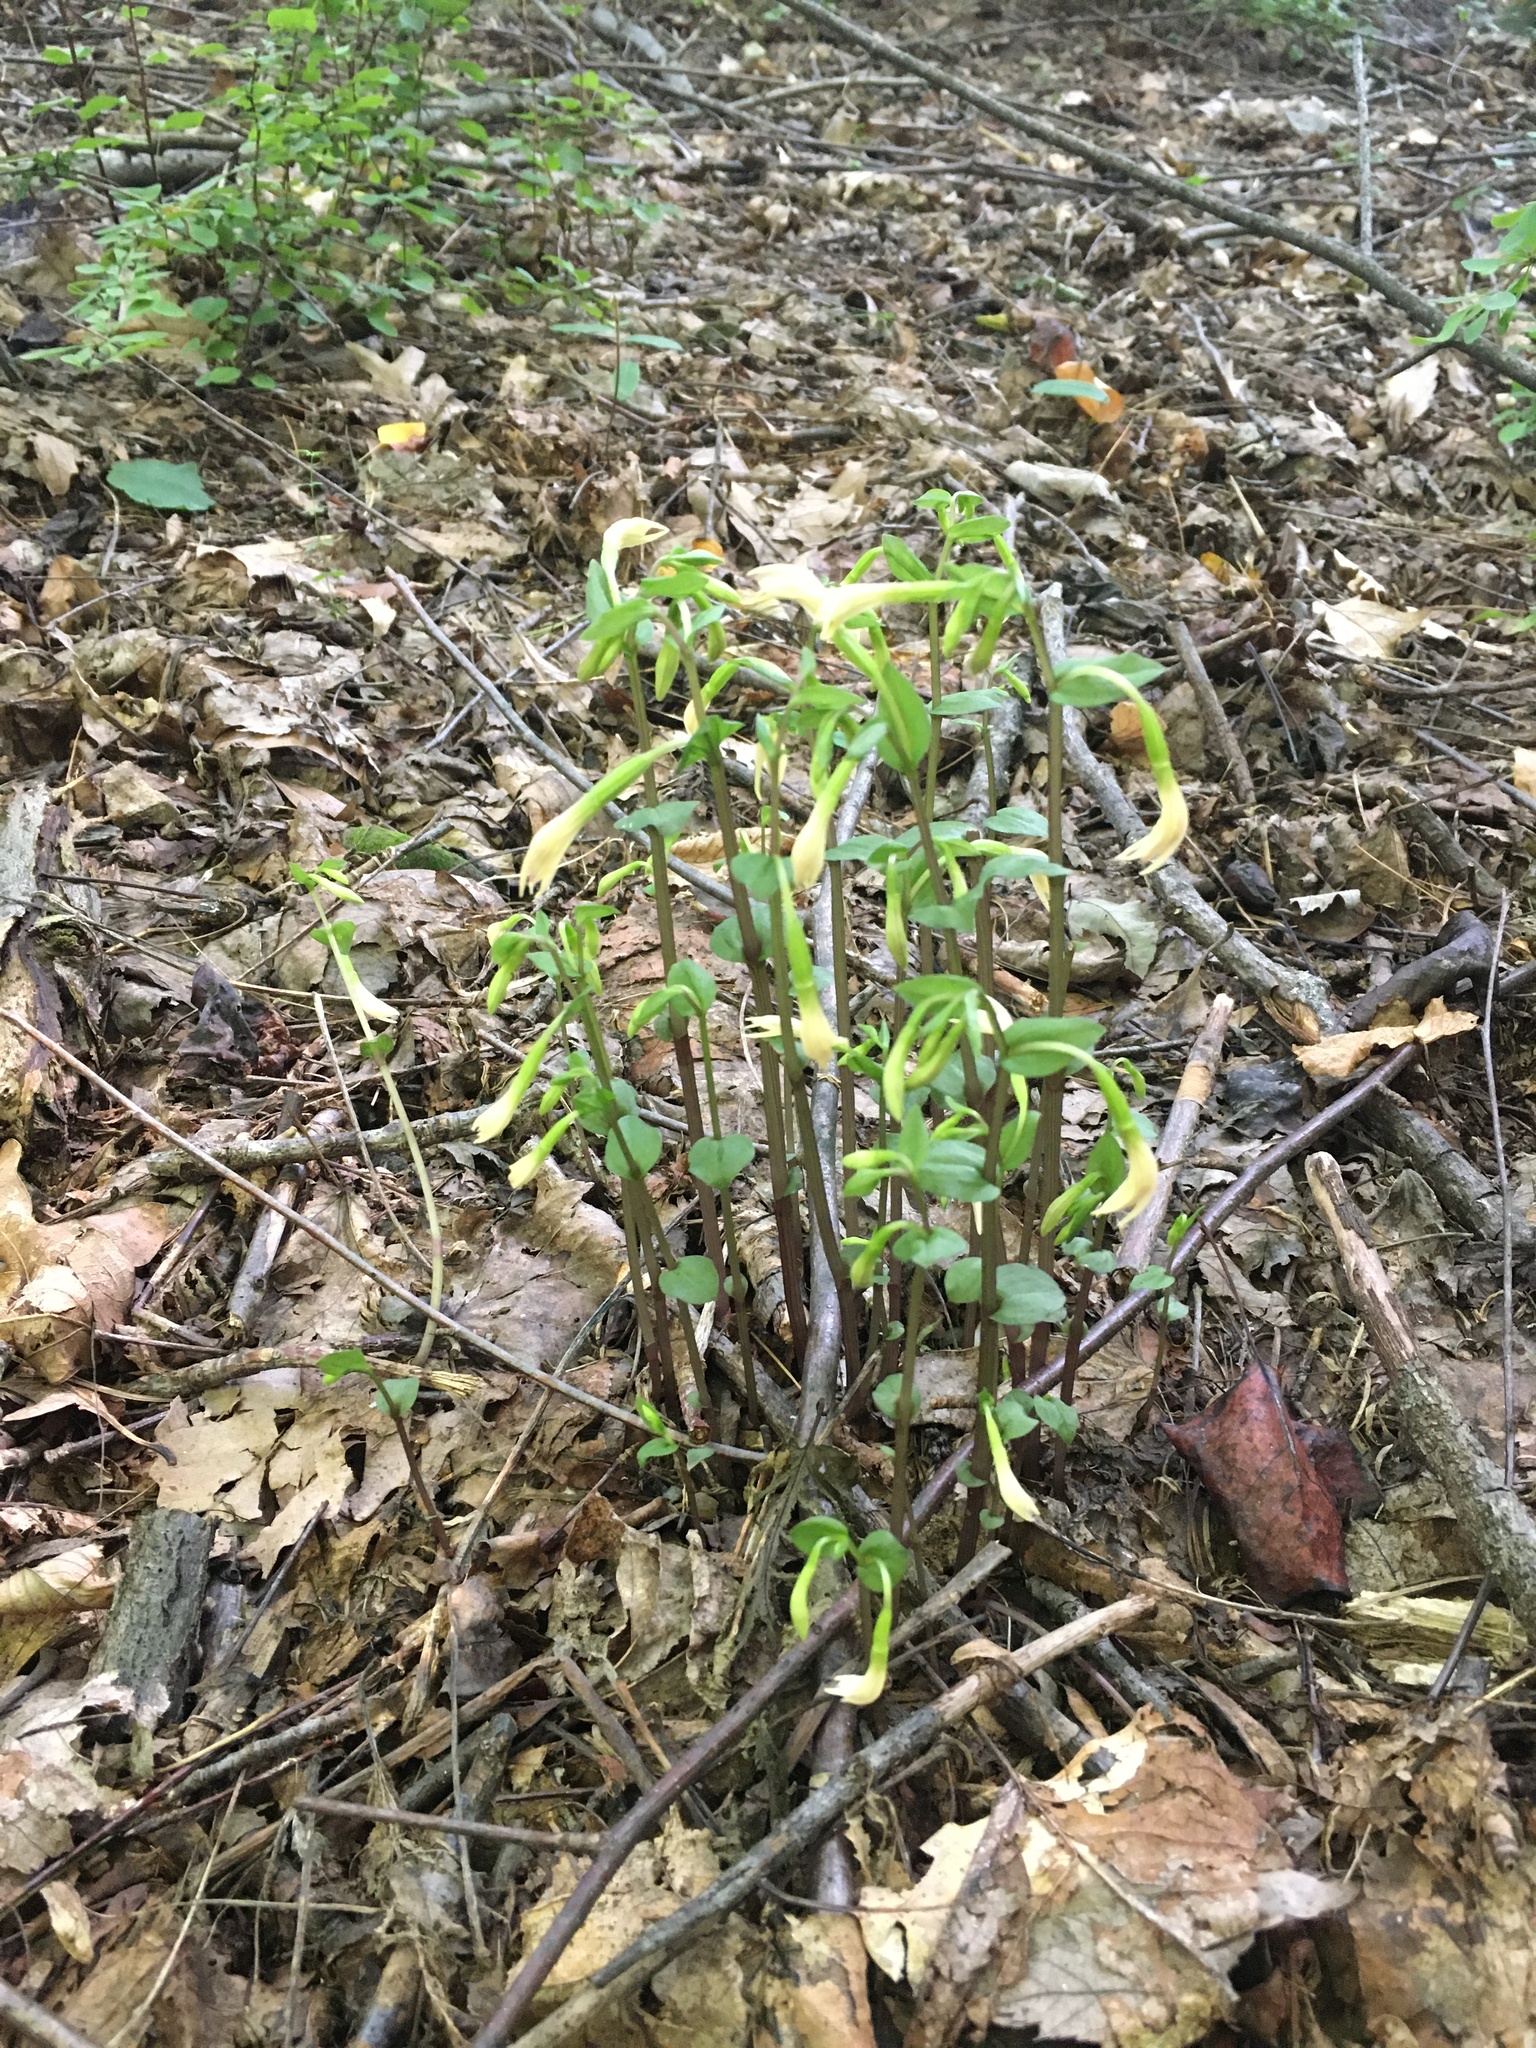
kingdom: Plantae
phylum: Tracheophyta
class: Liliopsida
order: Asparagales
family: Orchidaceae
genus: Triphora
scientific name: Triphora trianthophoros
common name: Three birds orchid
